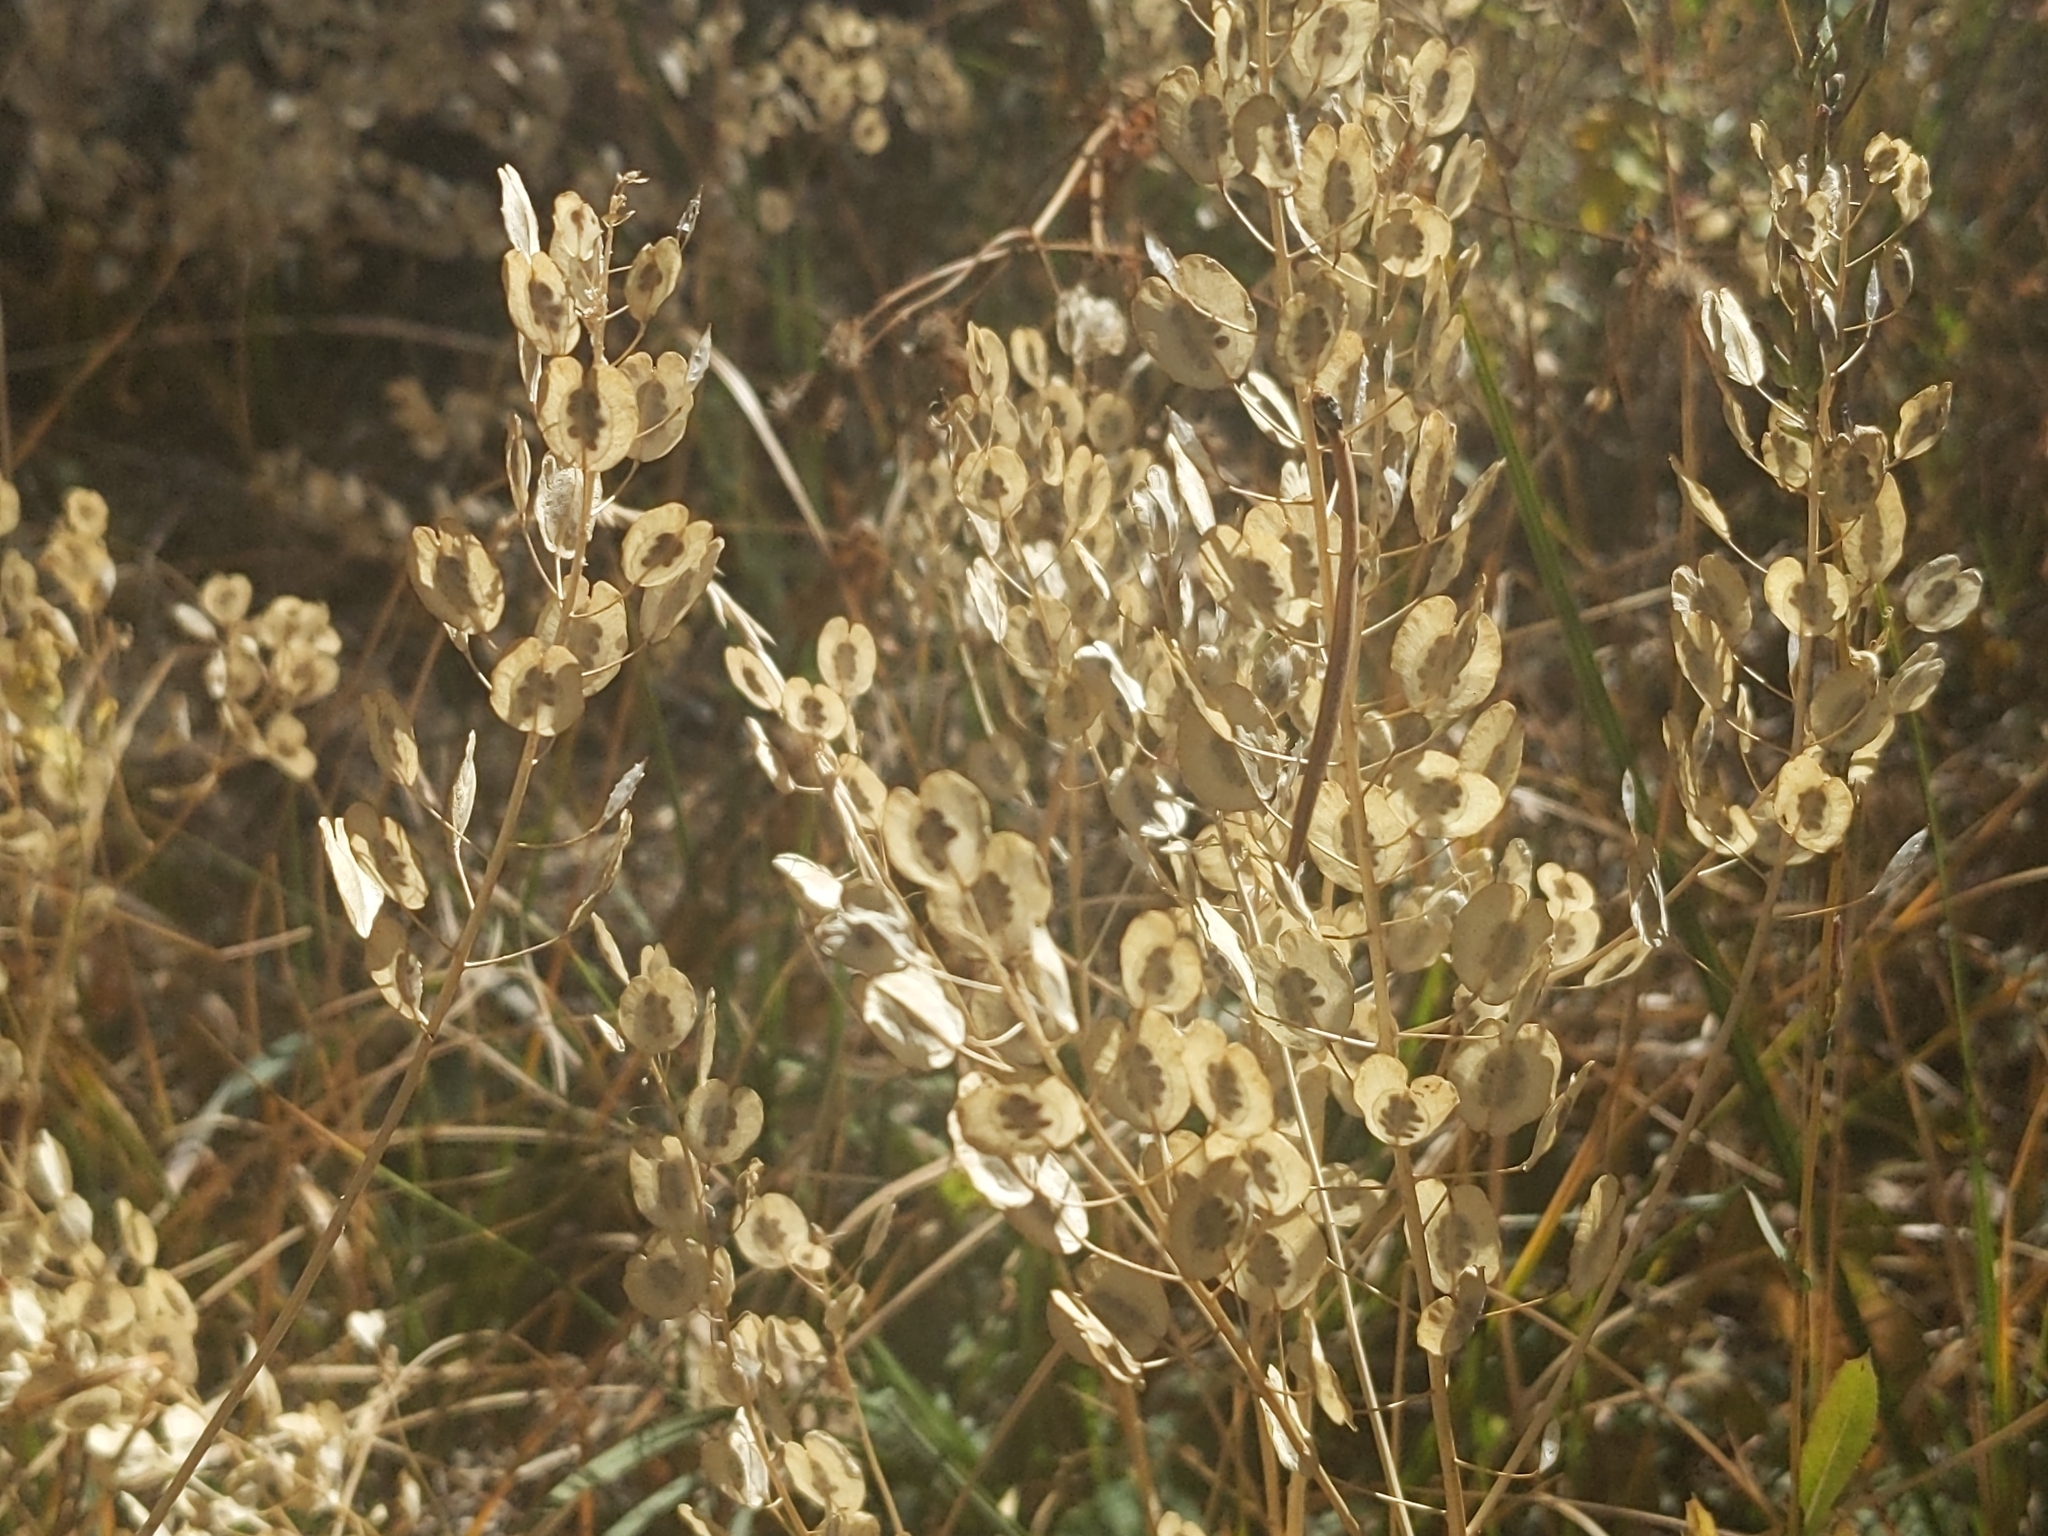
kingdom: Plantae
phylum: Tracheophyta
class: Magnoliopsida
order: Brassicales
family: Brassicaceae
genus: Thlaspi
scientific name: Thlaspi arvense
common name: Field pennycress
